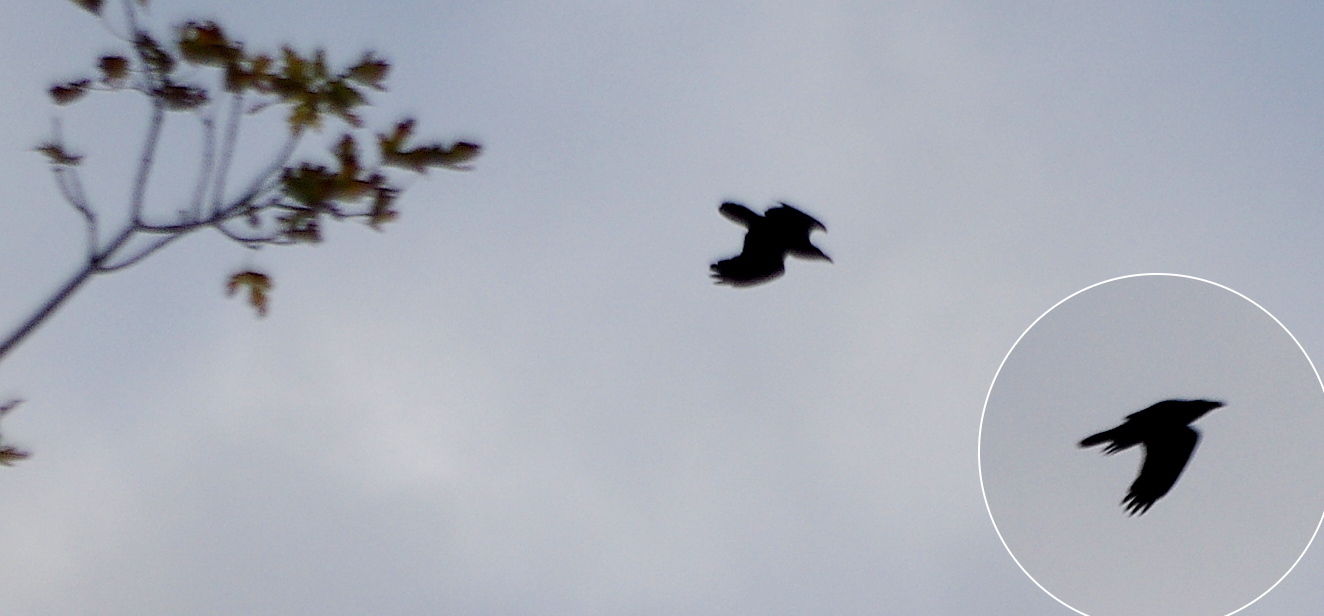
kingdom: Animalia
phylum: Chordata
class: Aves
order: Passeriformes
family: Corvidae
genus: Corvus
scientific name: Corvus corax
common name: Common raven
